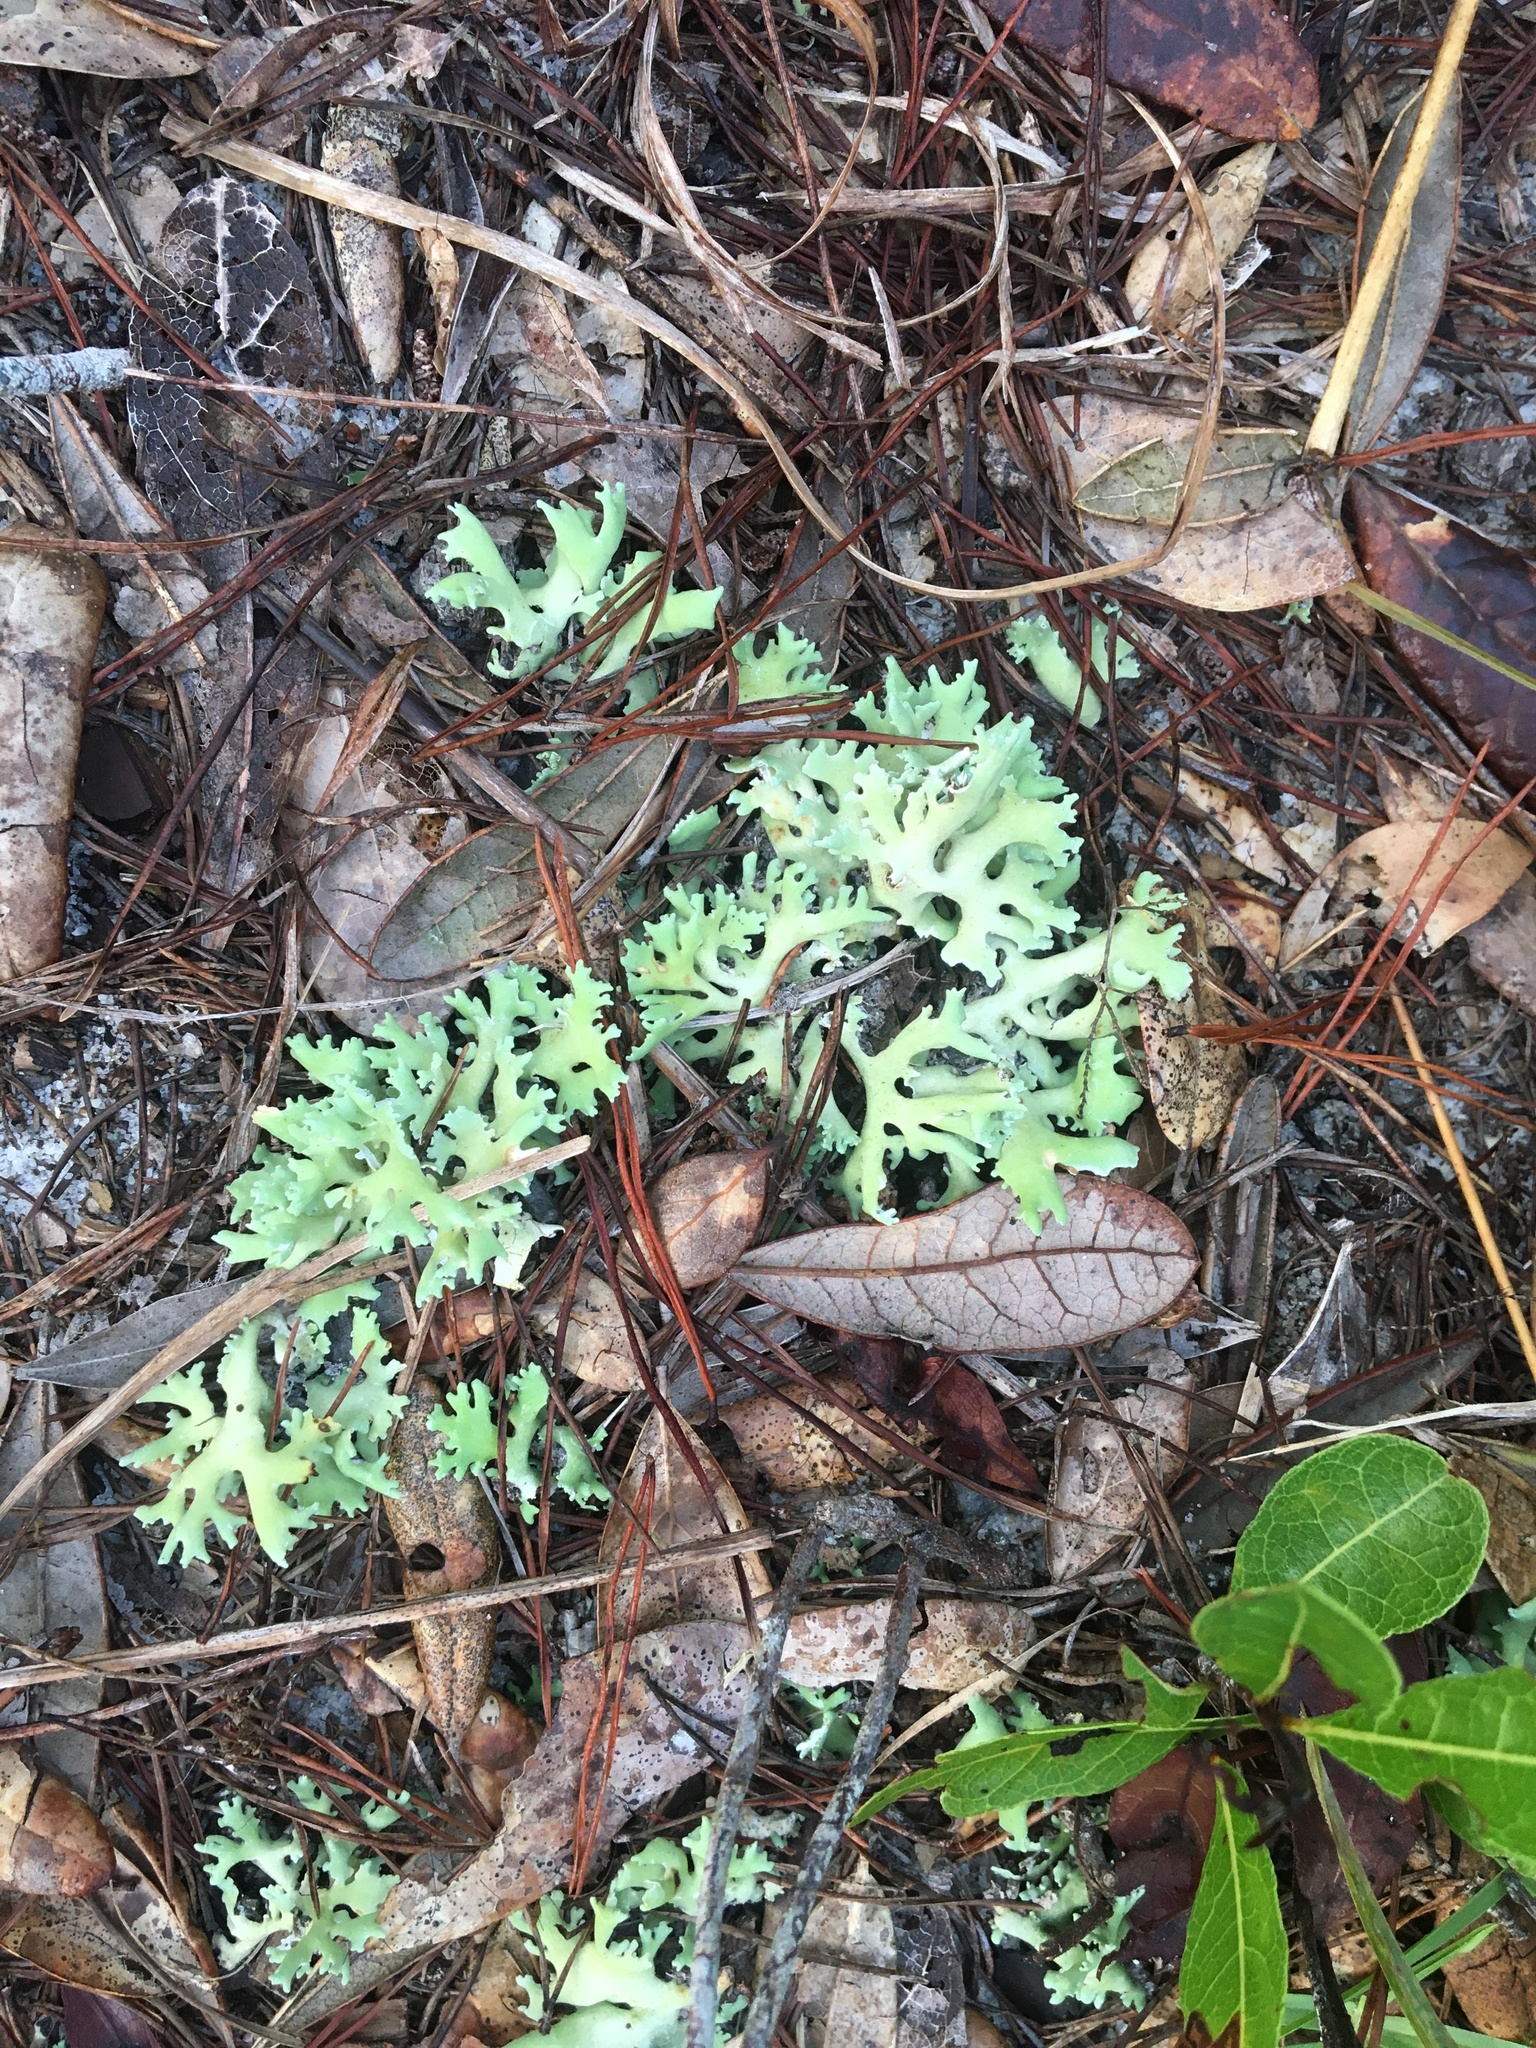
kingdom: Fungi
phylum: Ascomycota
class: Lecanoromycetes
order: Lecanorales
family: Cladoniaceae
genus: Cladonia
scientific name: Cladonia prostrata
